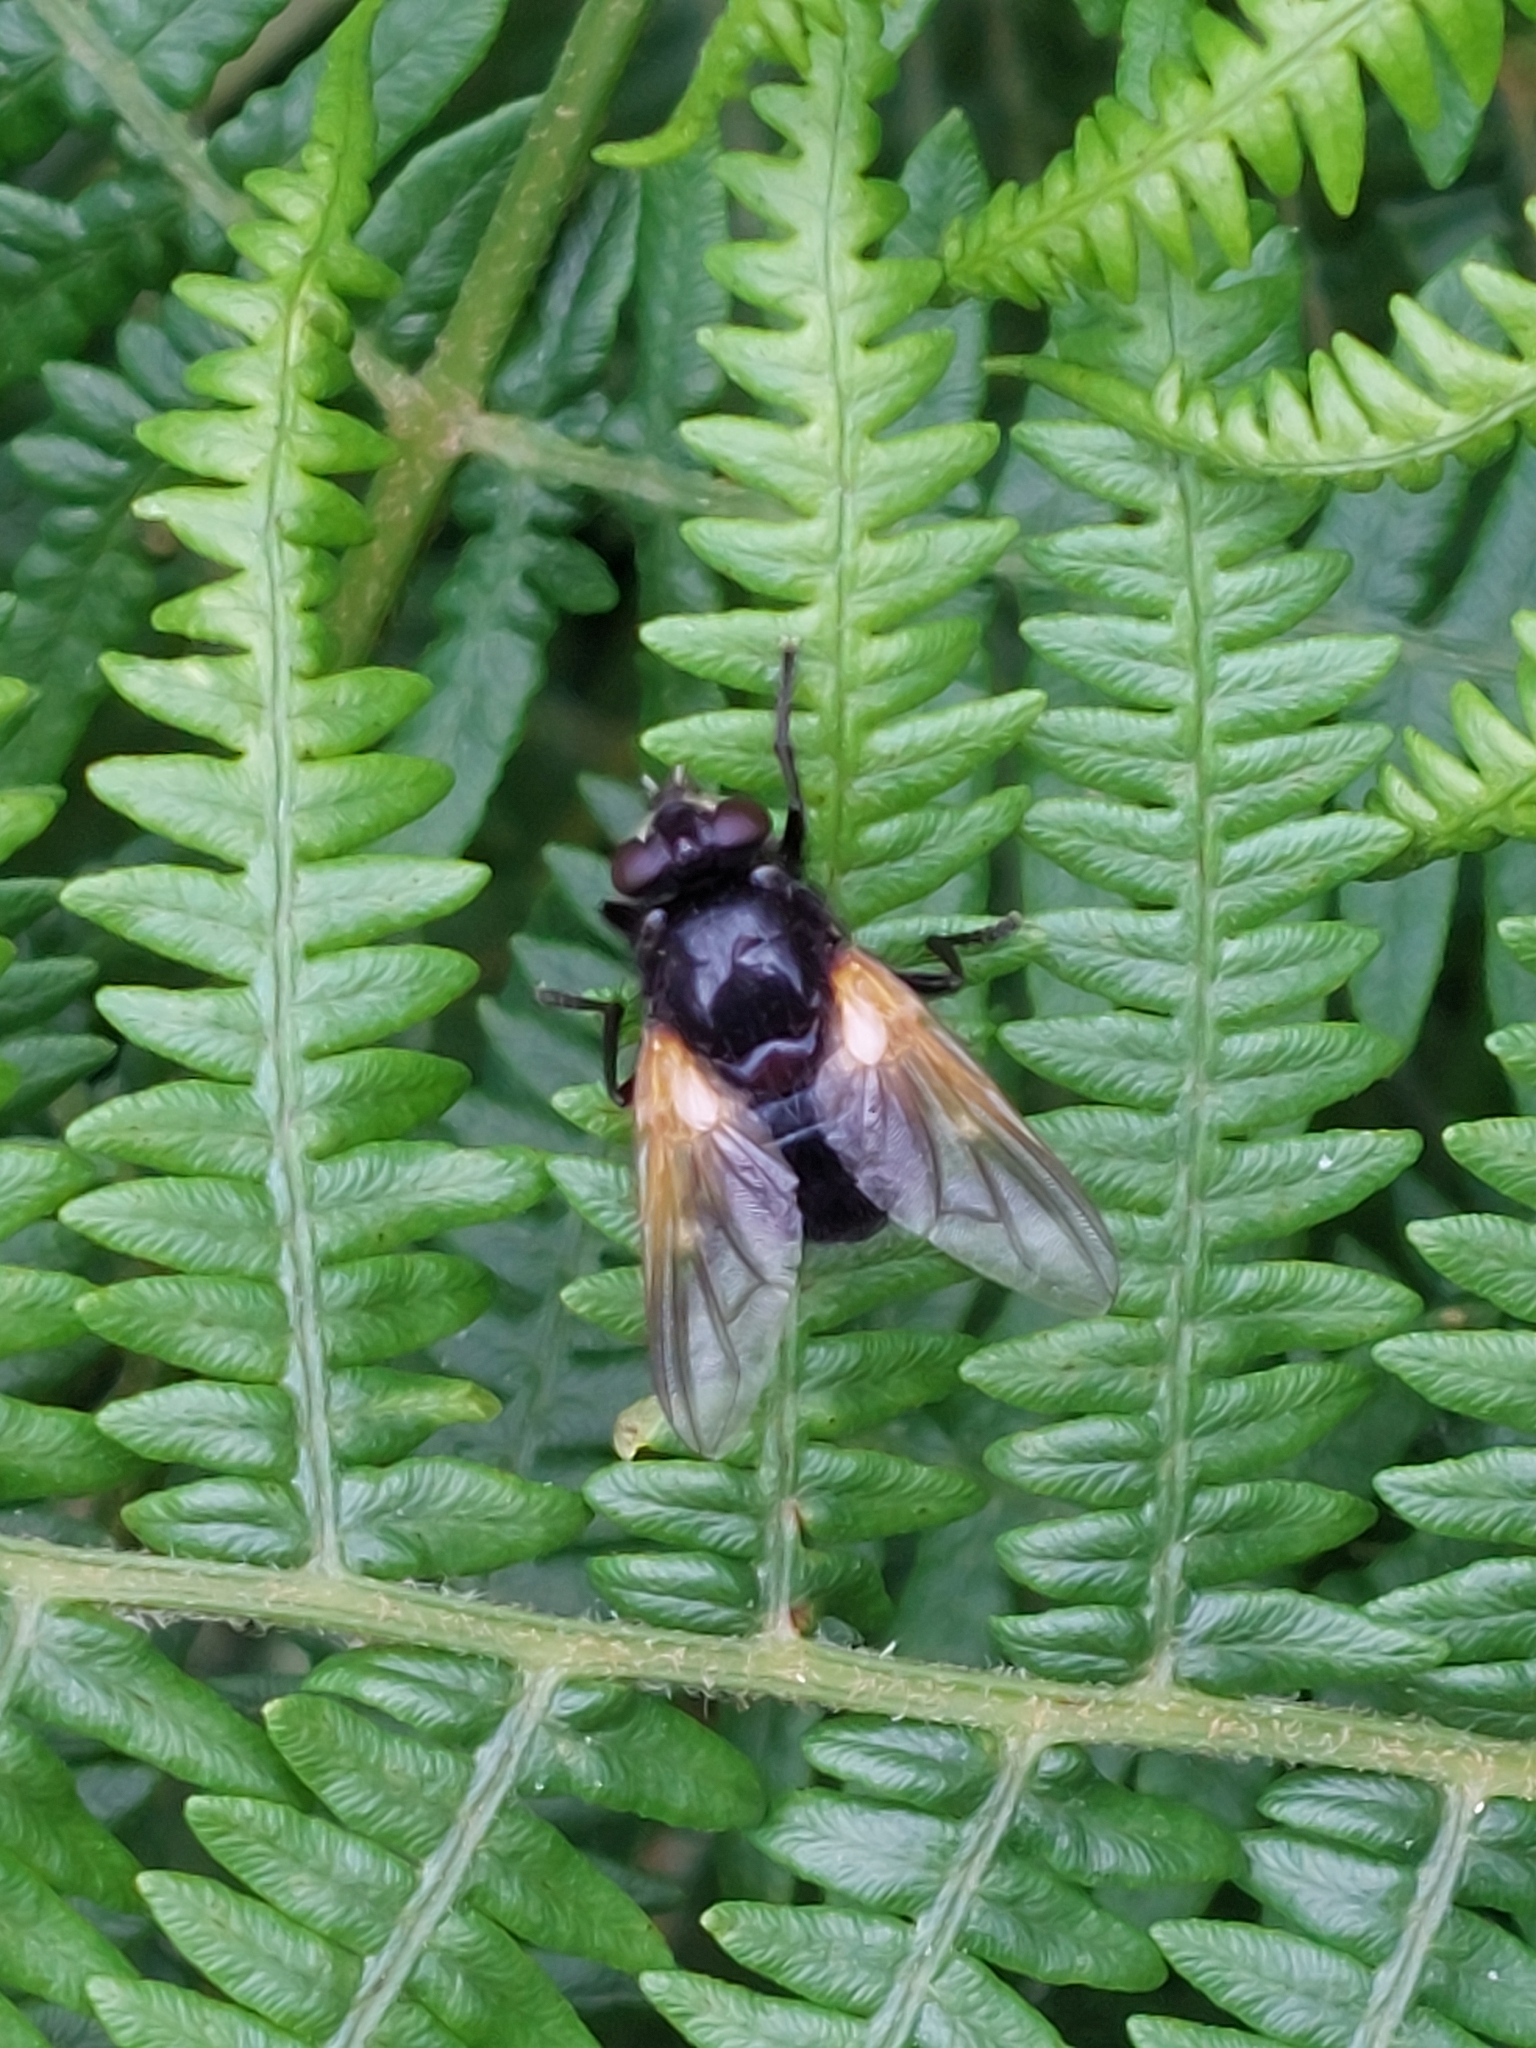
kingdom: Animalia
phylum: Arthropoda
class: Insecta
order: Diptera
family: Muscidae
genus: Mesembrina
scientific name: Mesembrina meridiana
